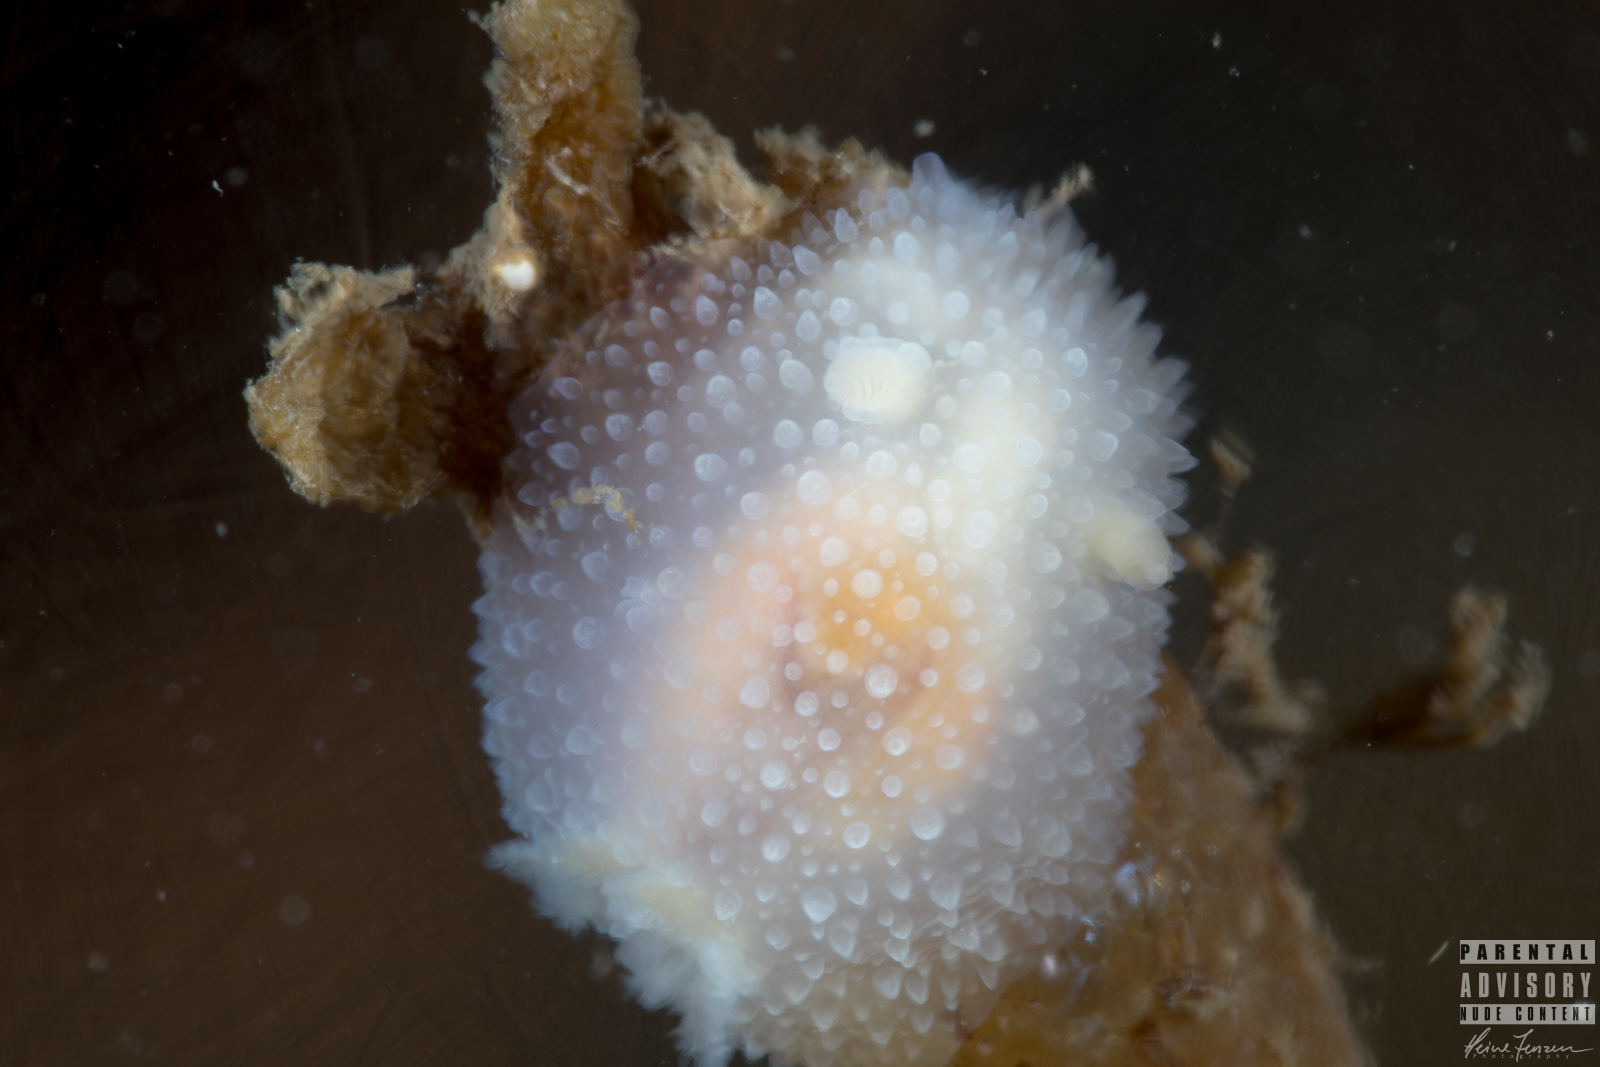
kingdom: Animalia
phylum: Mollusca
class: Gastropoda
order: Nudibranchia
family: Onchidorididae
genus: Acanthodoris
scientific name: Acanthodoris pilosa
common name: Hairy spiny doris
